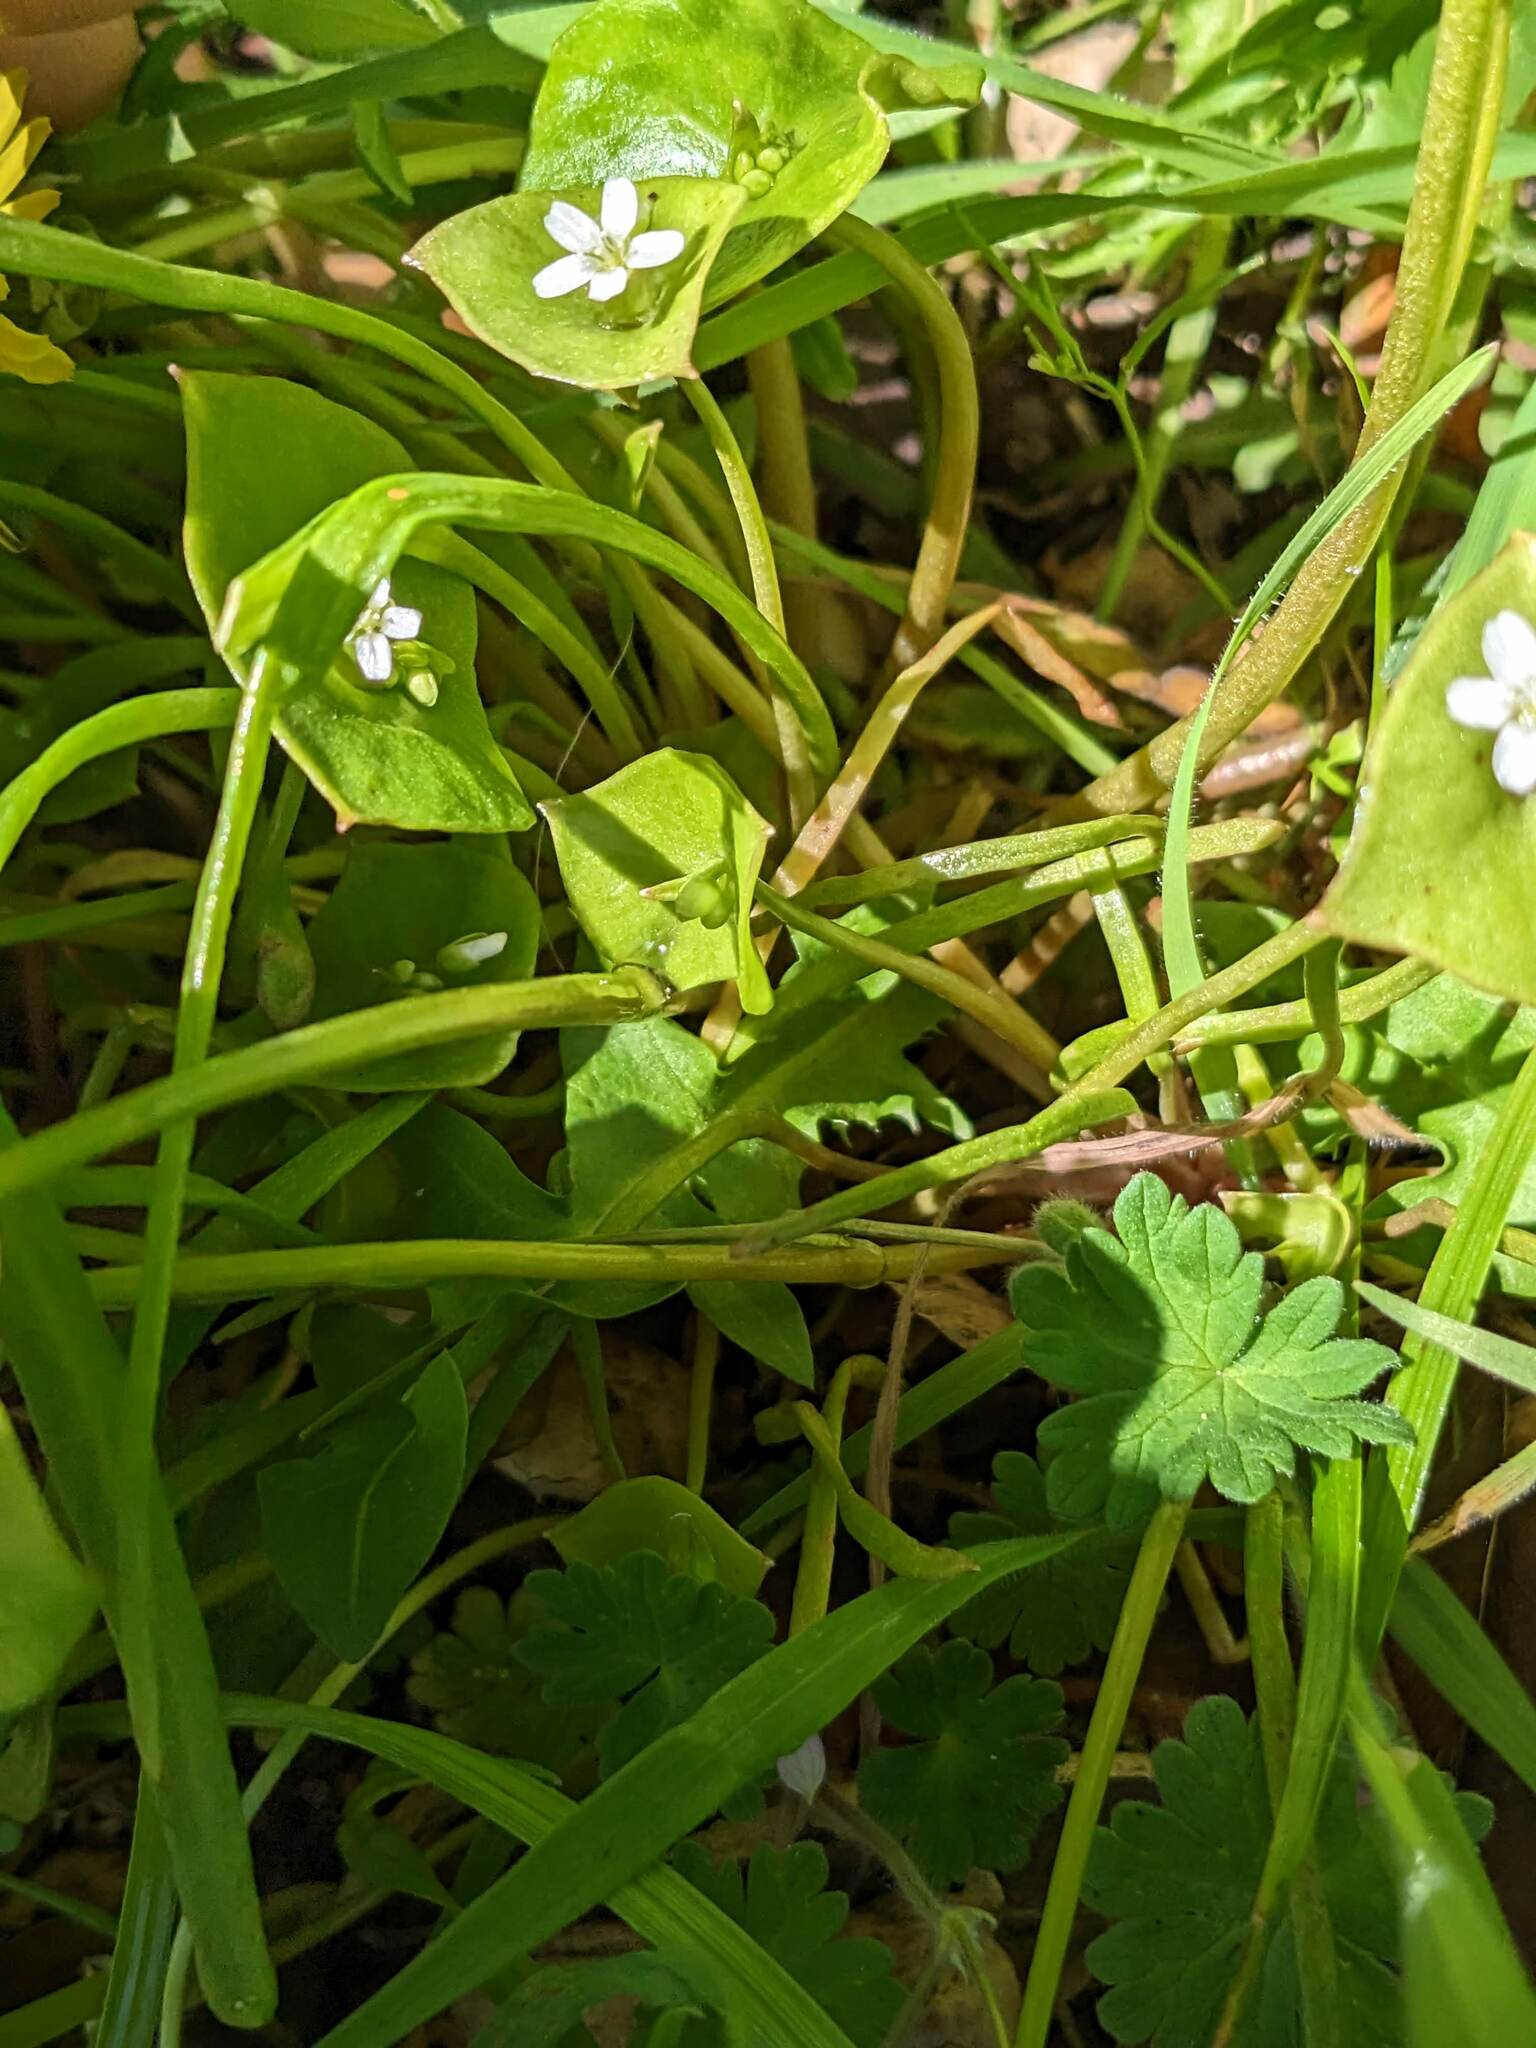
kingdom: Plantae
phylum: Tracheophyta
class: Magnoliopsida
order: Caryophyllales
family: Montiaceae
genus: Claytonia
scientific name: Claytonia perfoliata
